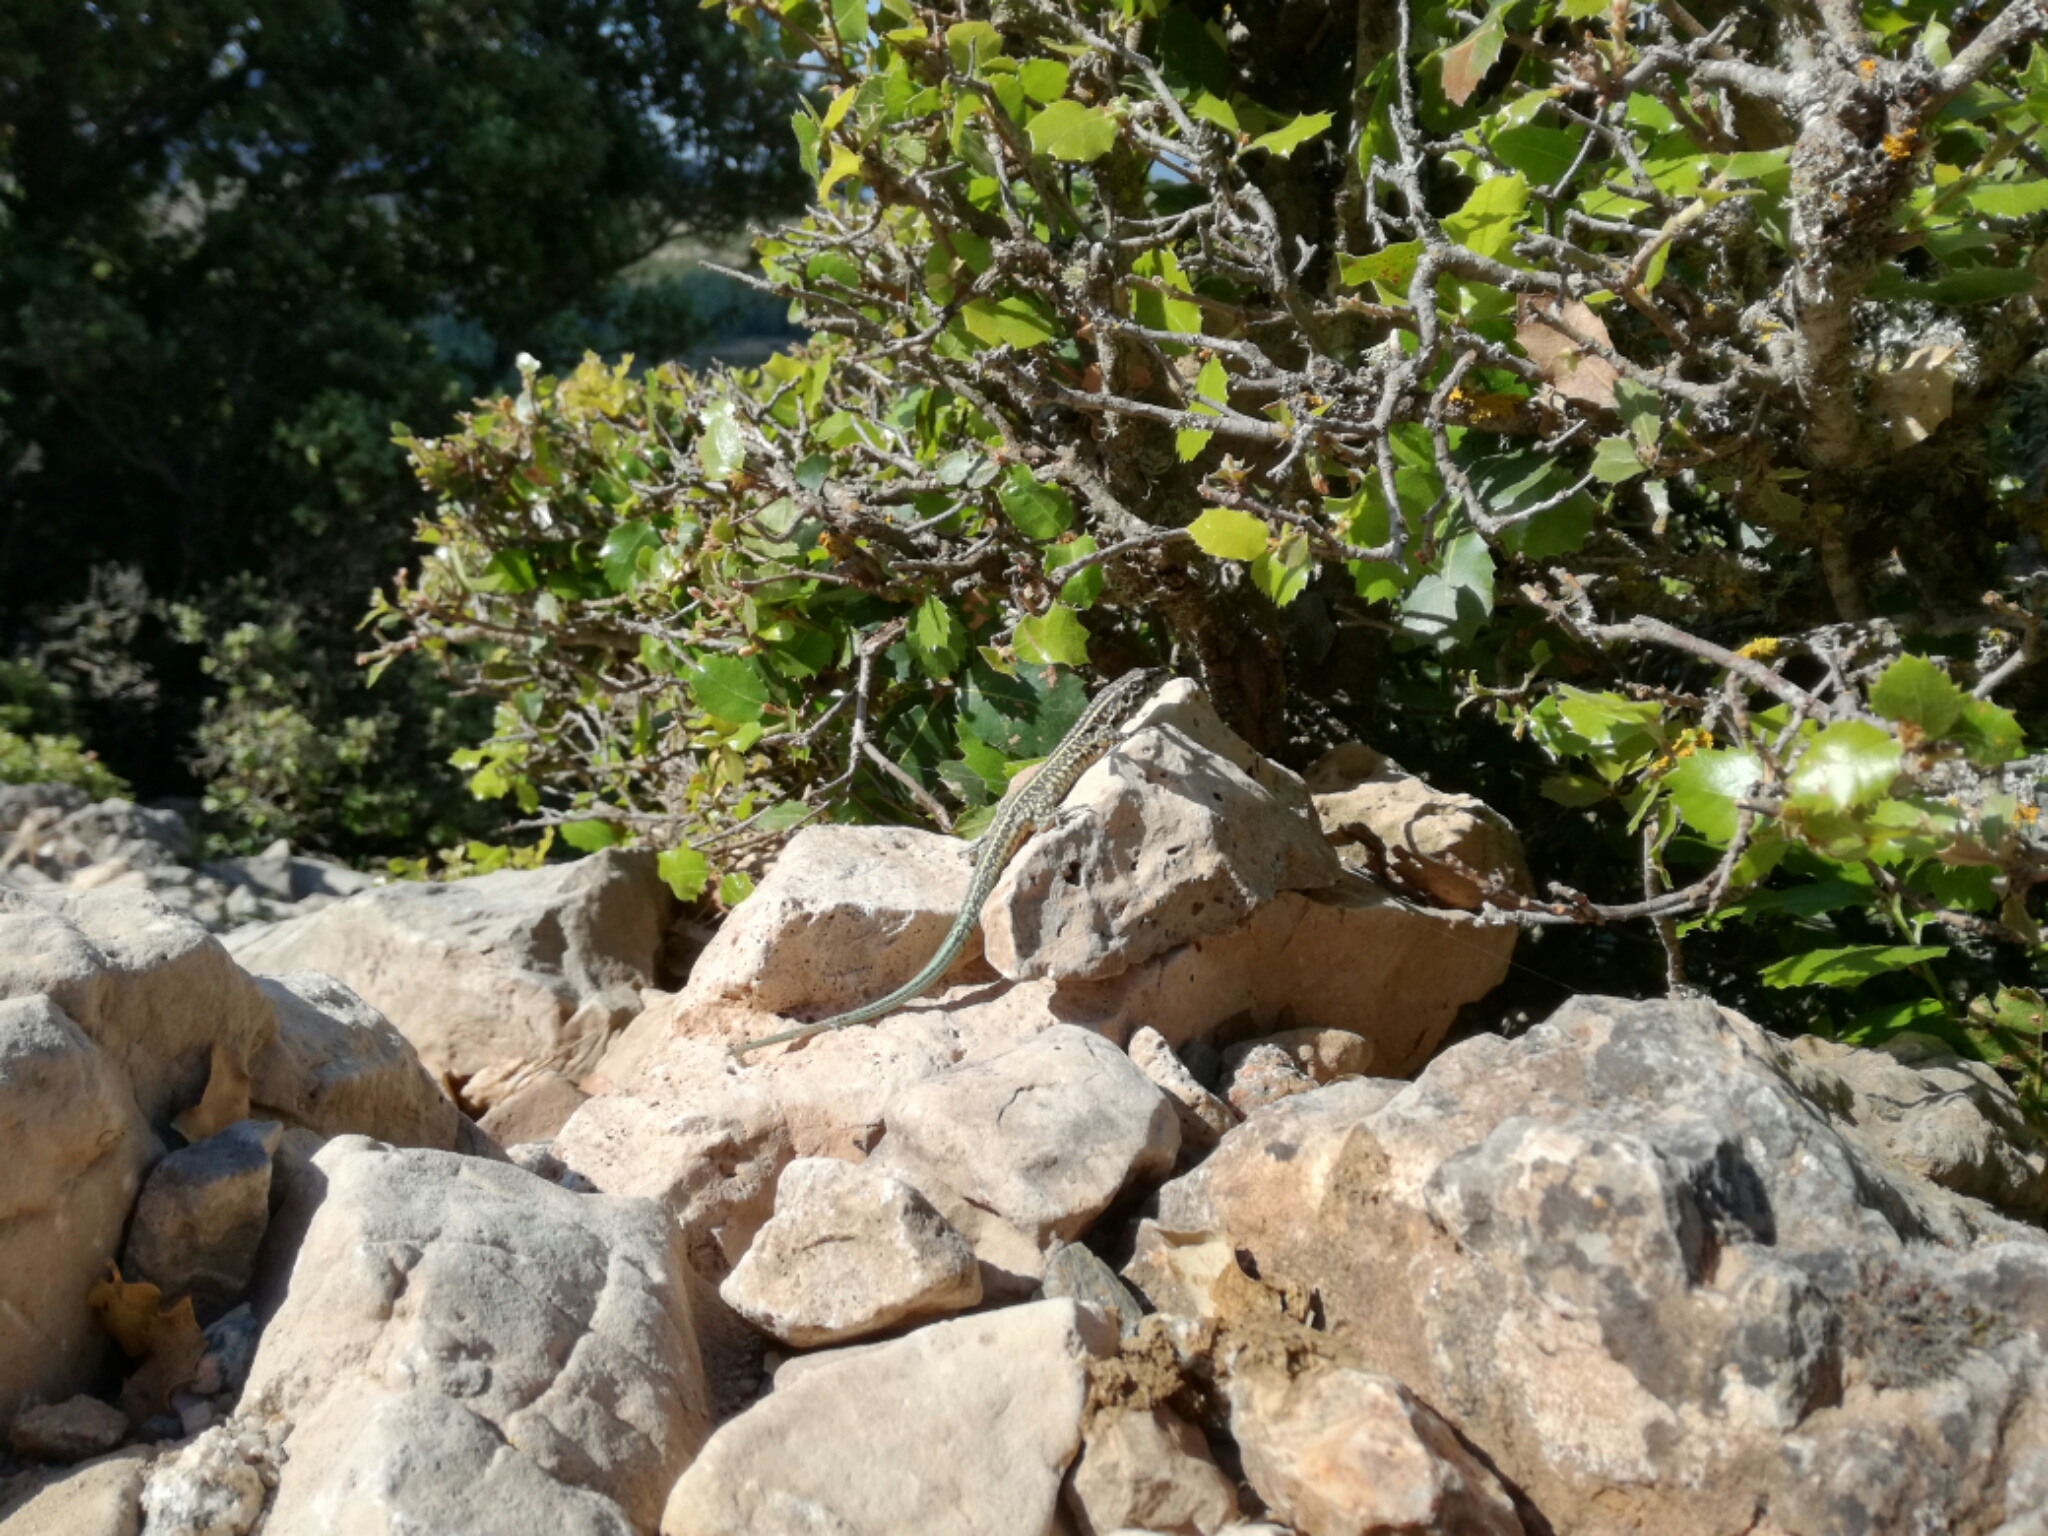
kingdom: Animalia
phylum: Chordata
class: Squamata
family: Lacertidae
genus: Podarcis
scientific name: Podarcis tiliguerta
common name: Tyrrhenian wall lizard
